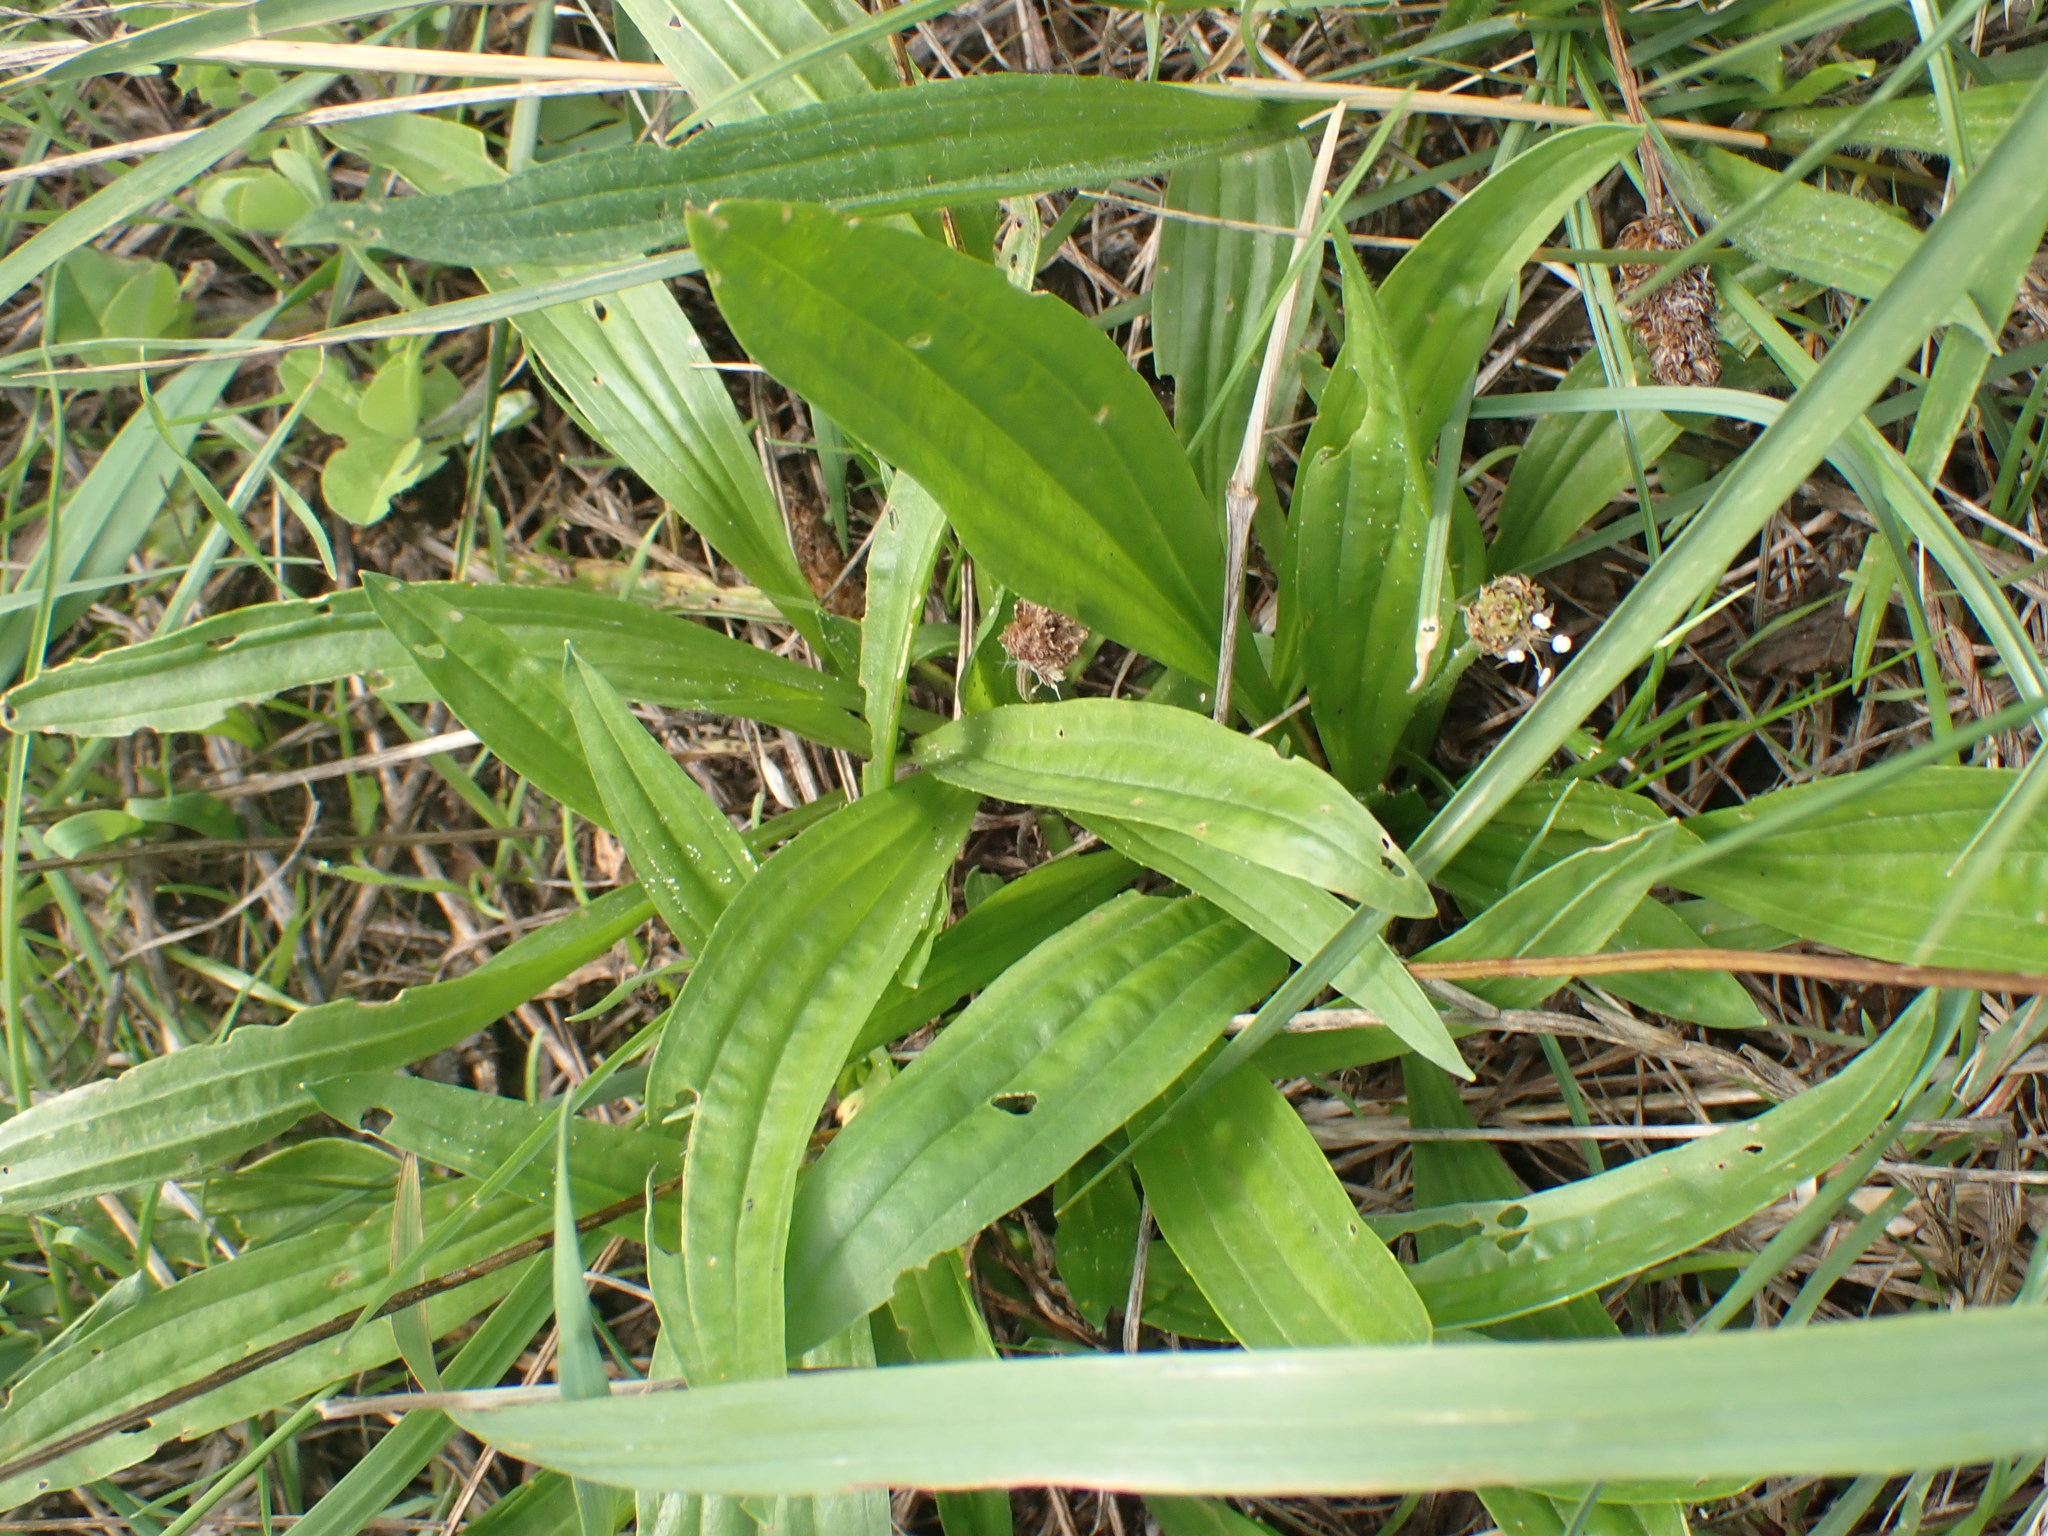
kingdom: Plantae
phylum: Tracheophyta
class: Magnoliopsida
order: Lamiales
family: Plantaginaceae
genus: Plantago
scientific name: Plantago lanceolata
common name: Ribwort plantain
